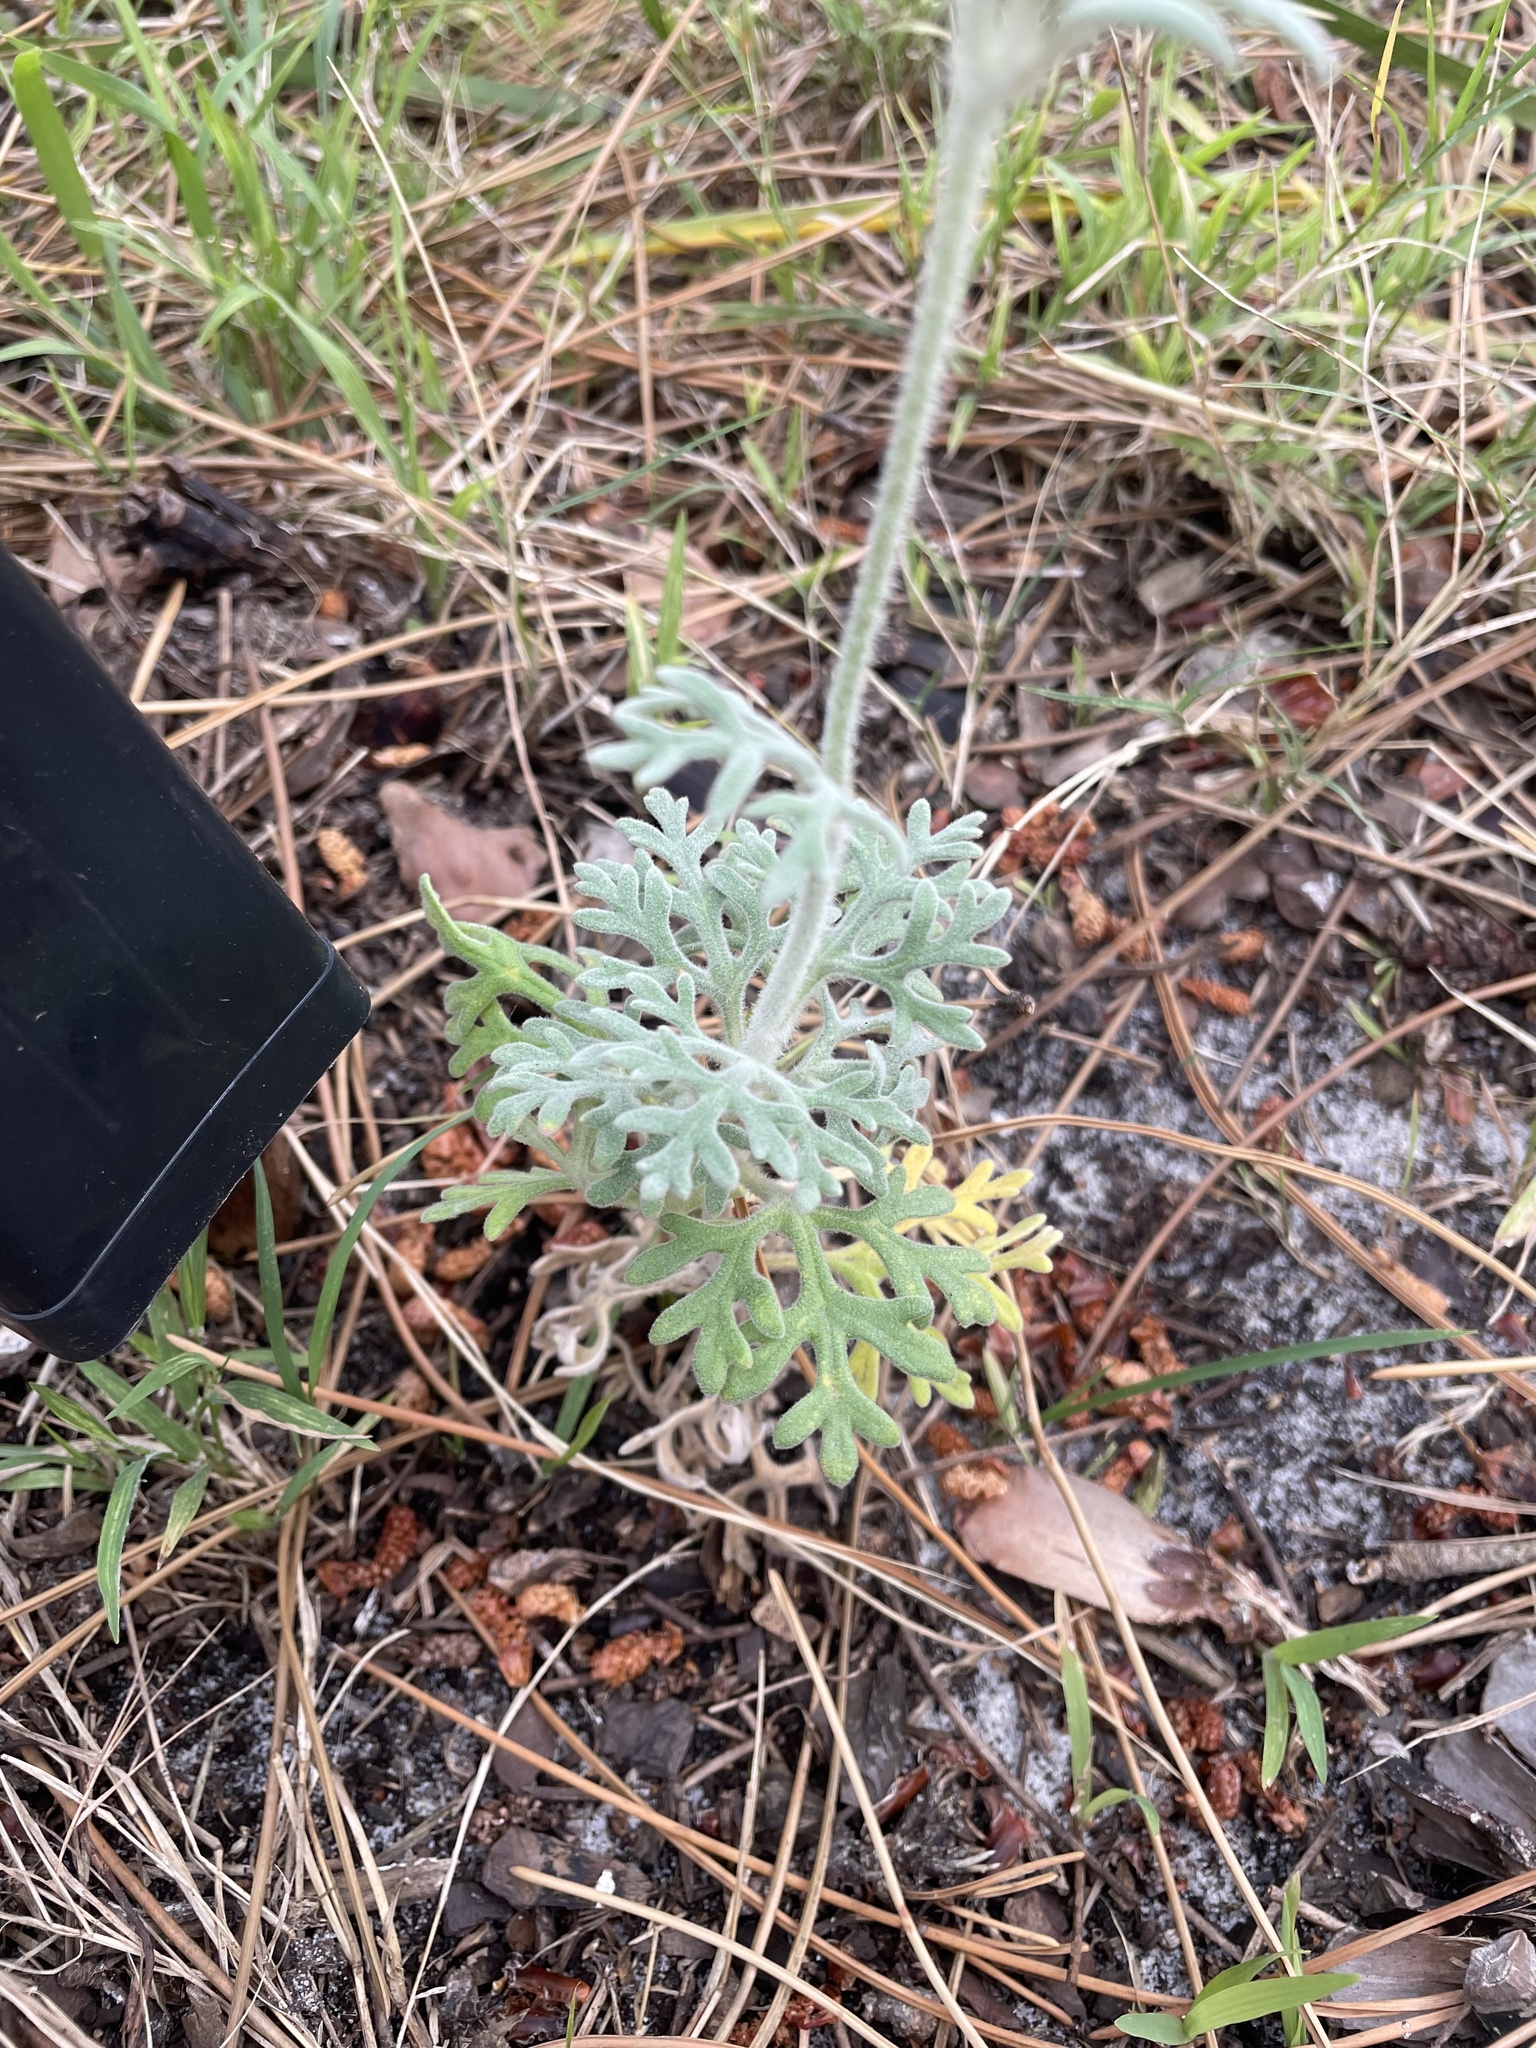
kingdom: Plantae
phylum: Tracheophyta
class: Magnoliopsida
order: Apiales
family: Apiaceae
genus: Actinotus
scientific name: Actinotus helianthi
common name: Flannel-flower
